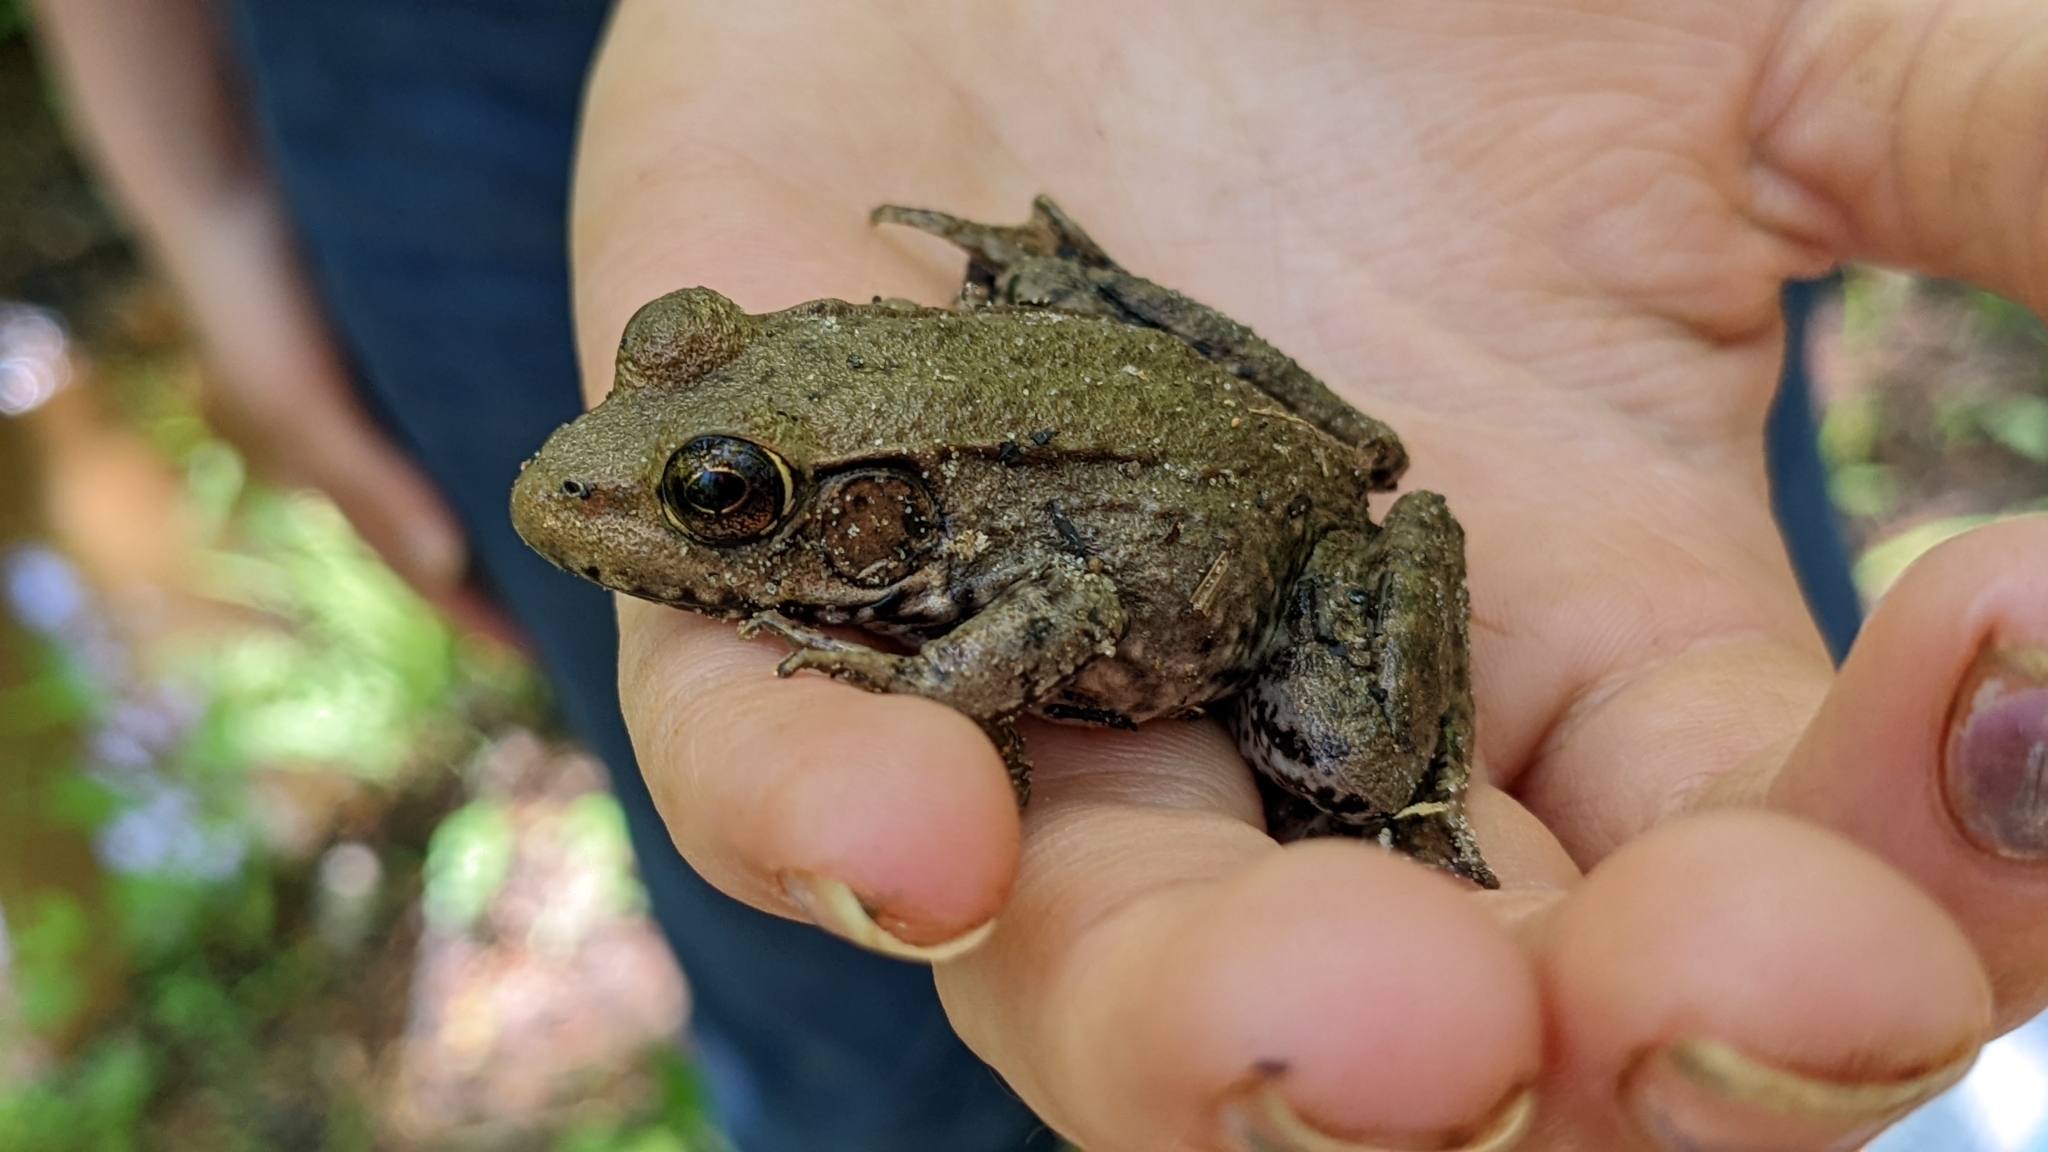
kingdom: Animalia
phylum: Chordata
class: Amphibia
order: Anura
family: Ranidae
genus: Lithobates
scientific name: Lithobates clamitans
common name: Green frog
